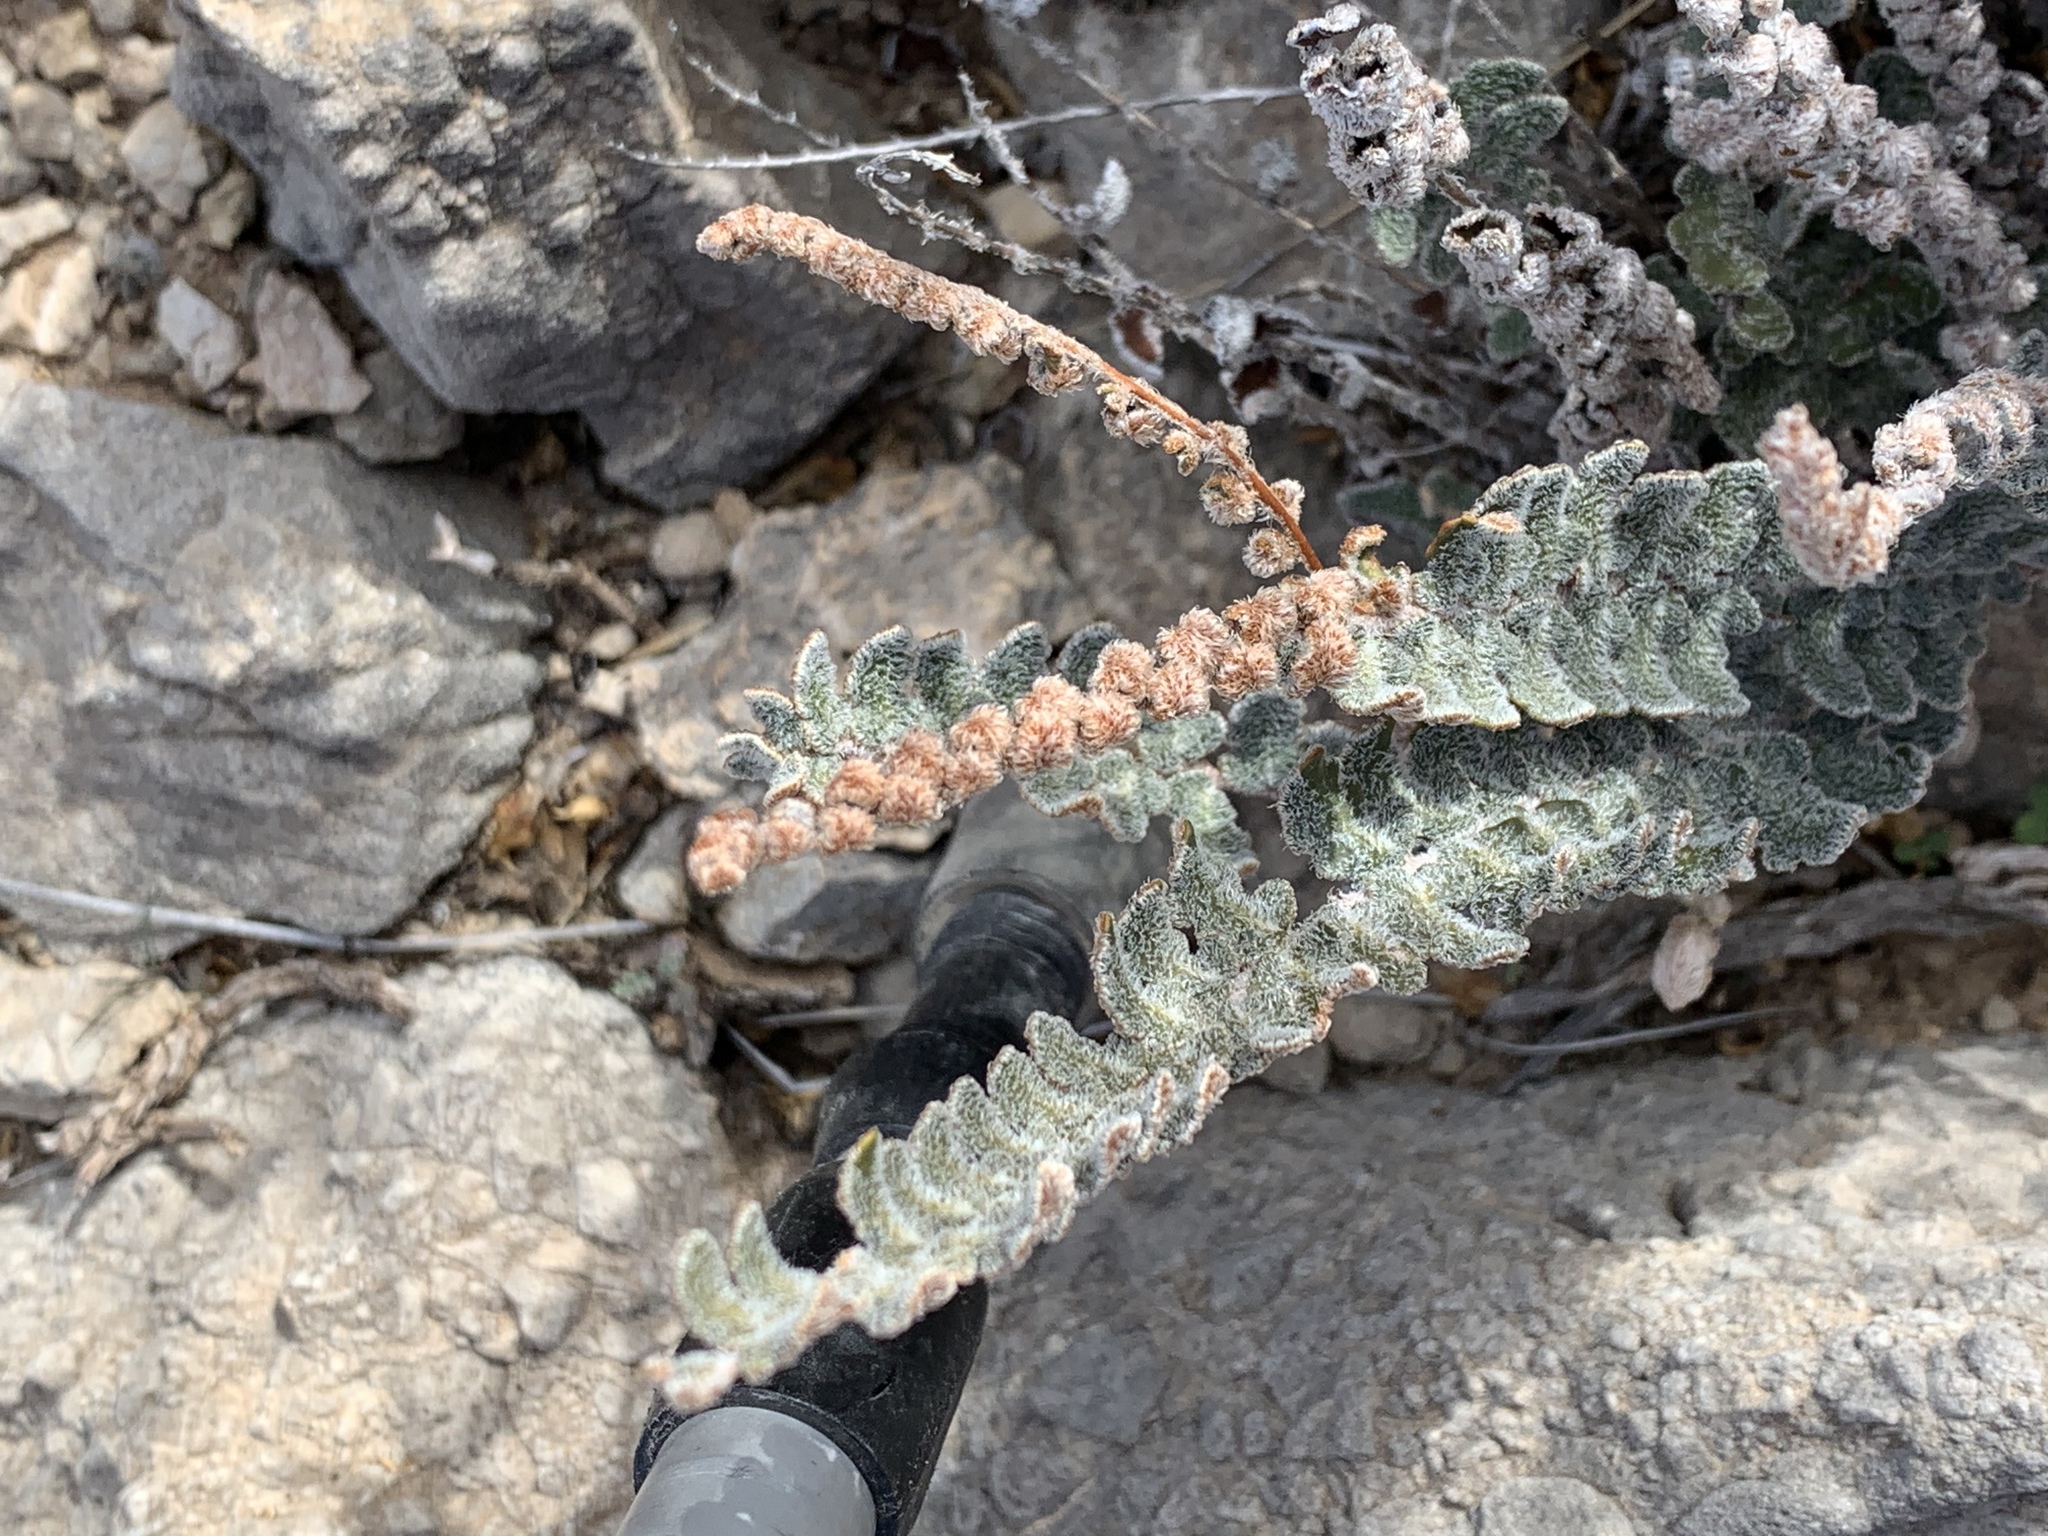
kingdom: Plantae
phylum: Tracheophyta
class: Polypodiopsida
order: Polypodiales
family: Pteridaceae
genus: Astrolepis
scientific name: Astrolepis cochisensis
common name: Scaly cloak fern
